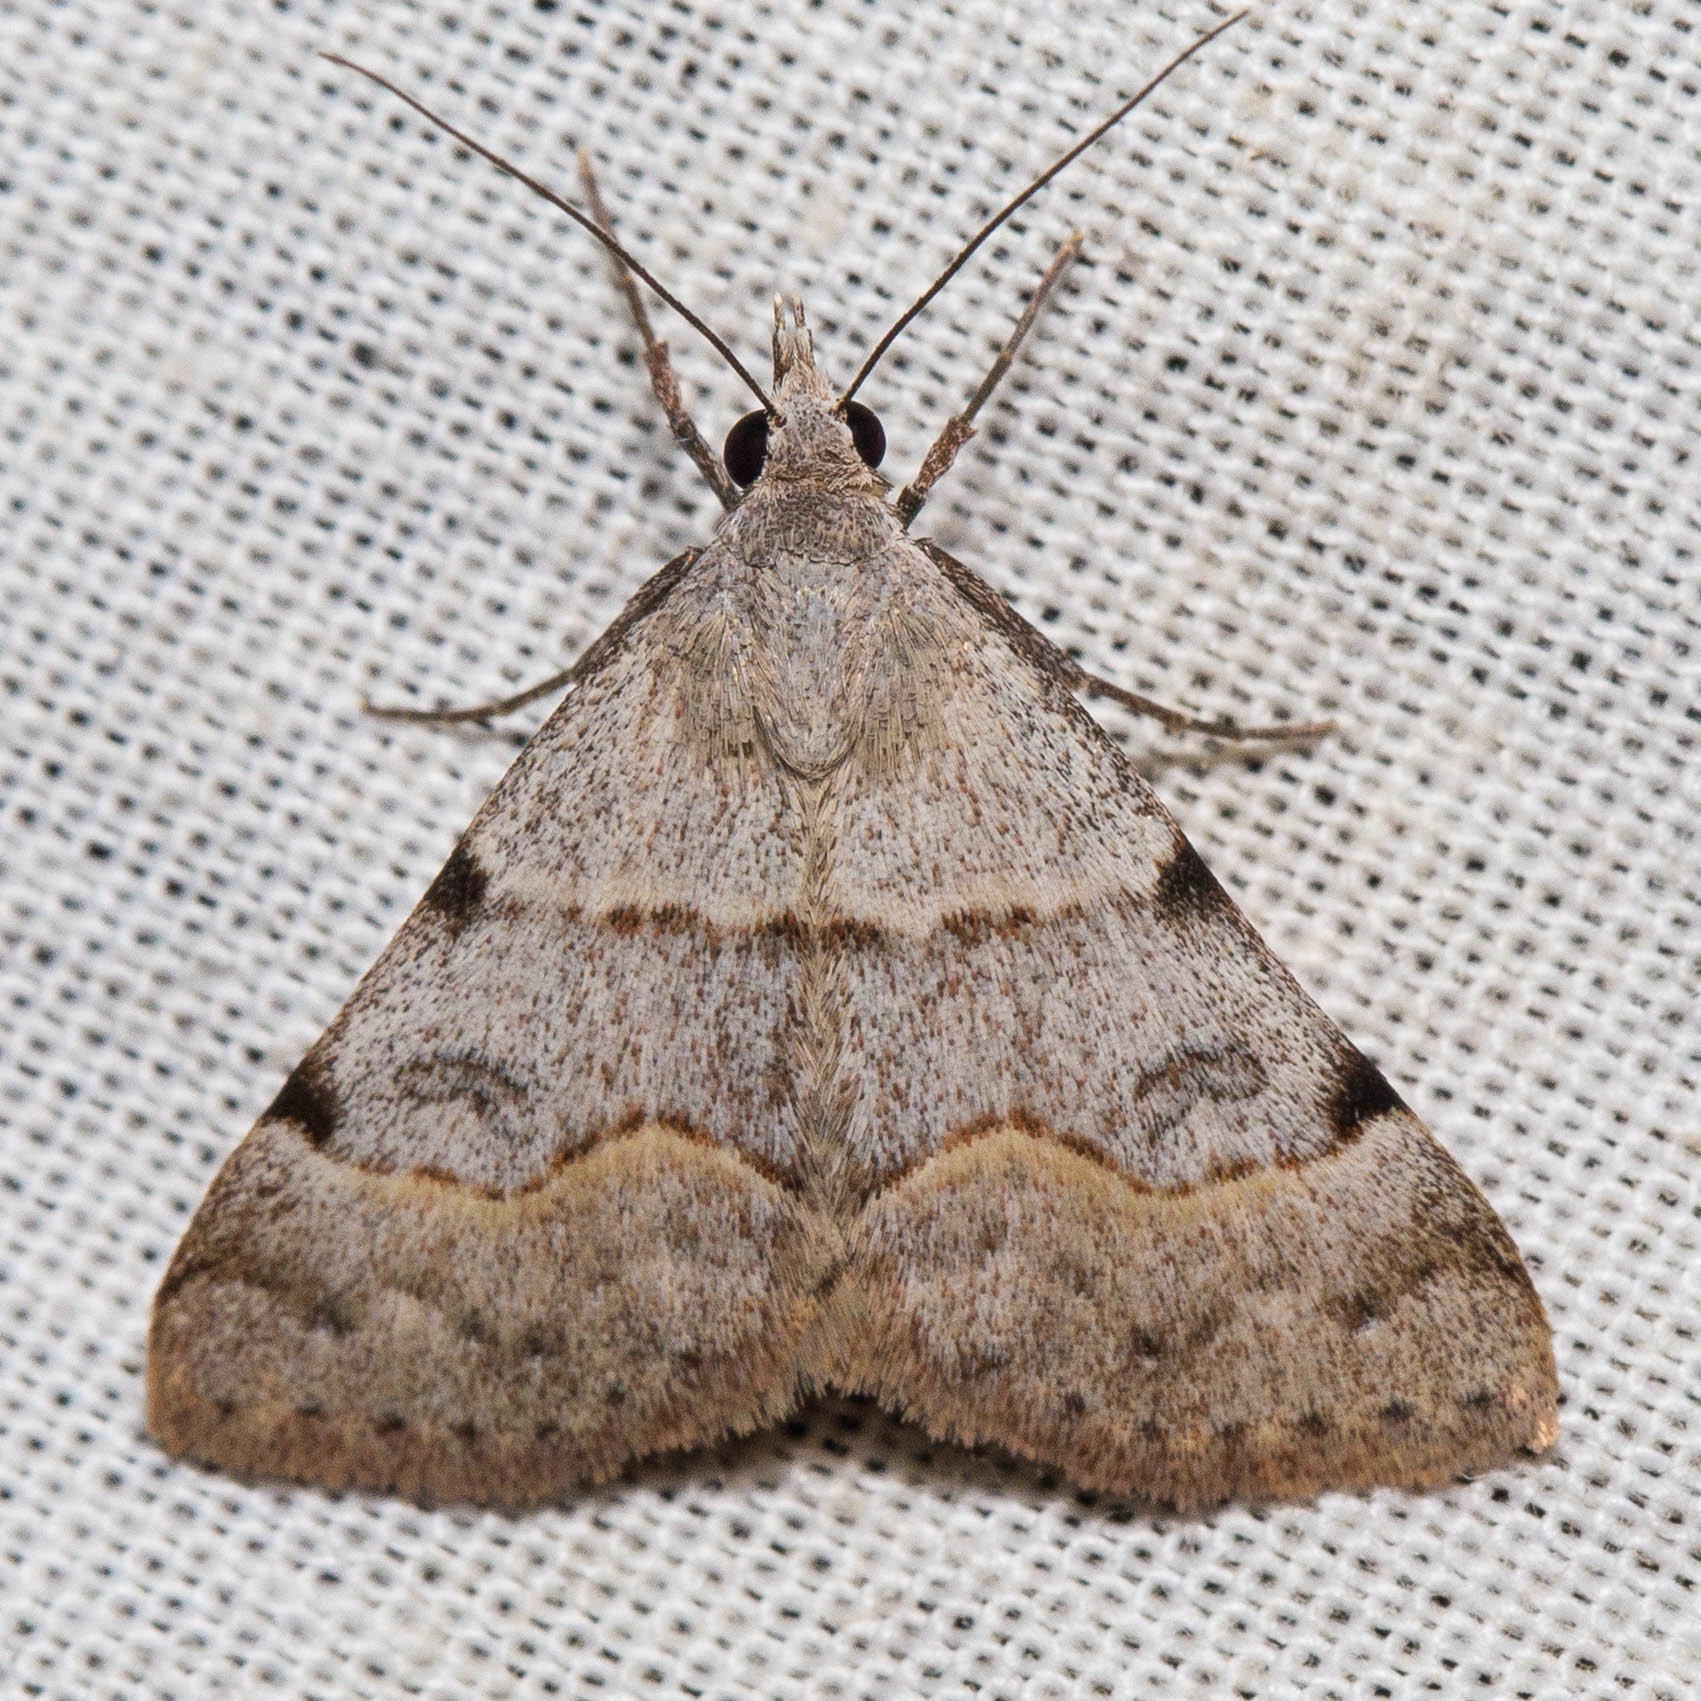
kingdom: Animalia
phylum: Arthropoda
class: Insecta
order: Lepidoptera
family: Erebidae
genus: Hemeroplanis
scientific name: Hemeroplanis historialis
